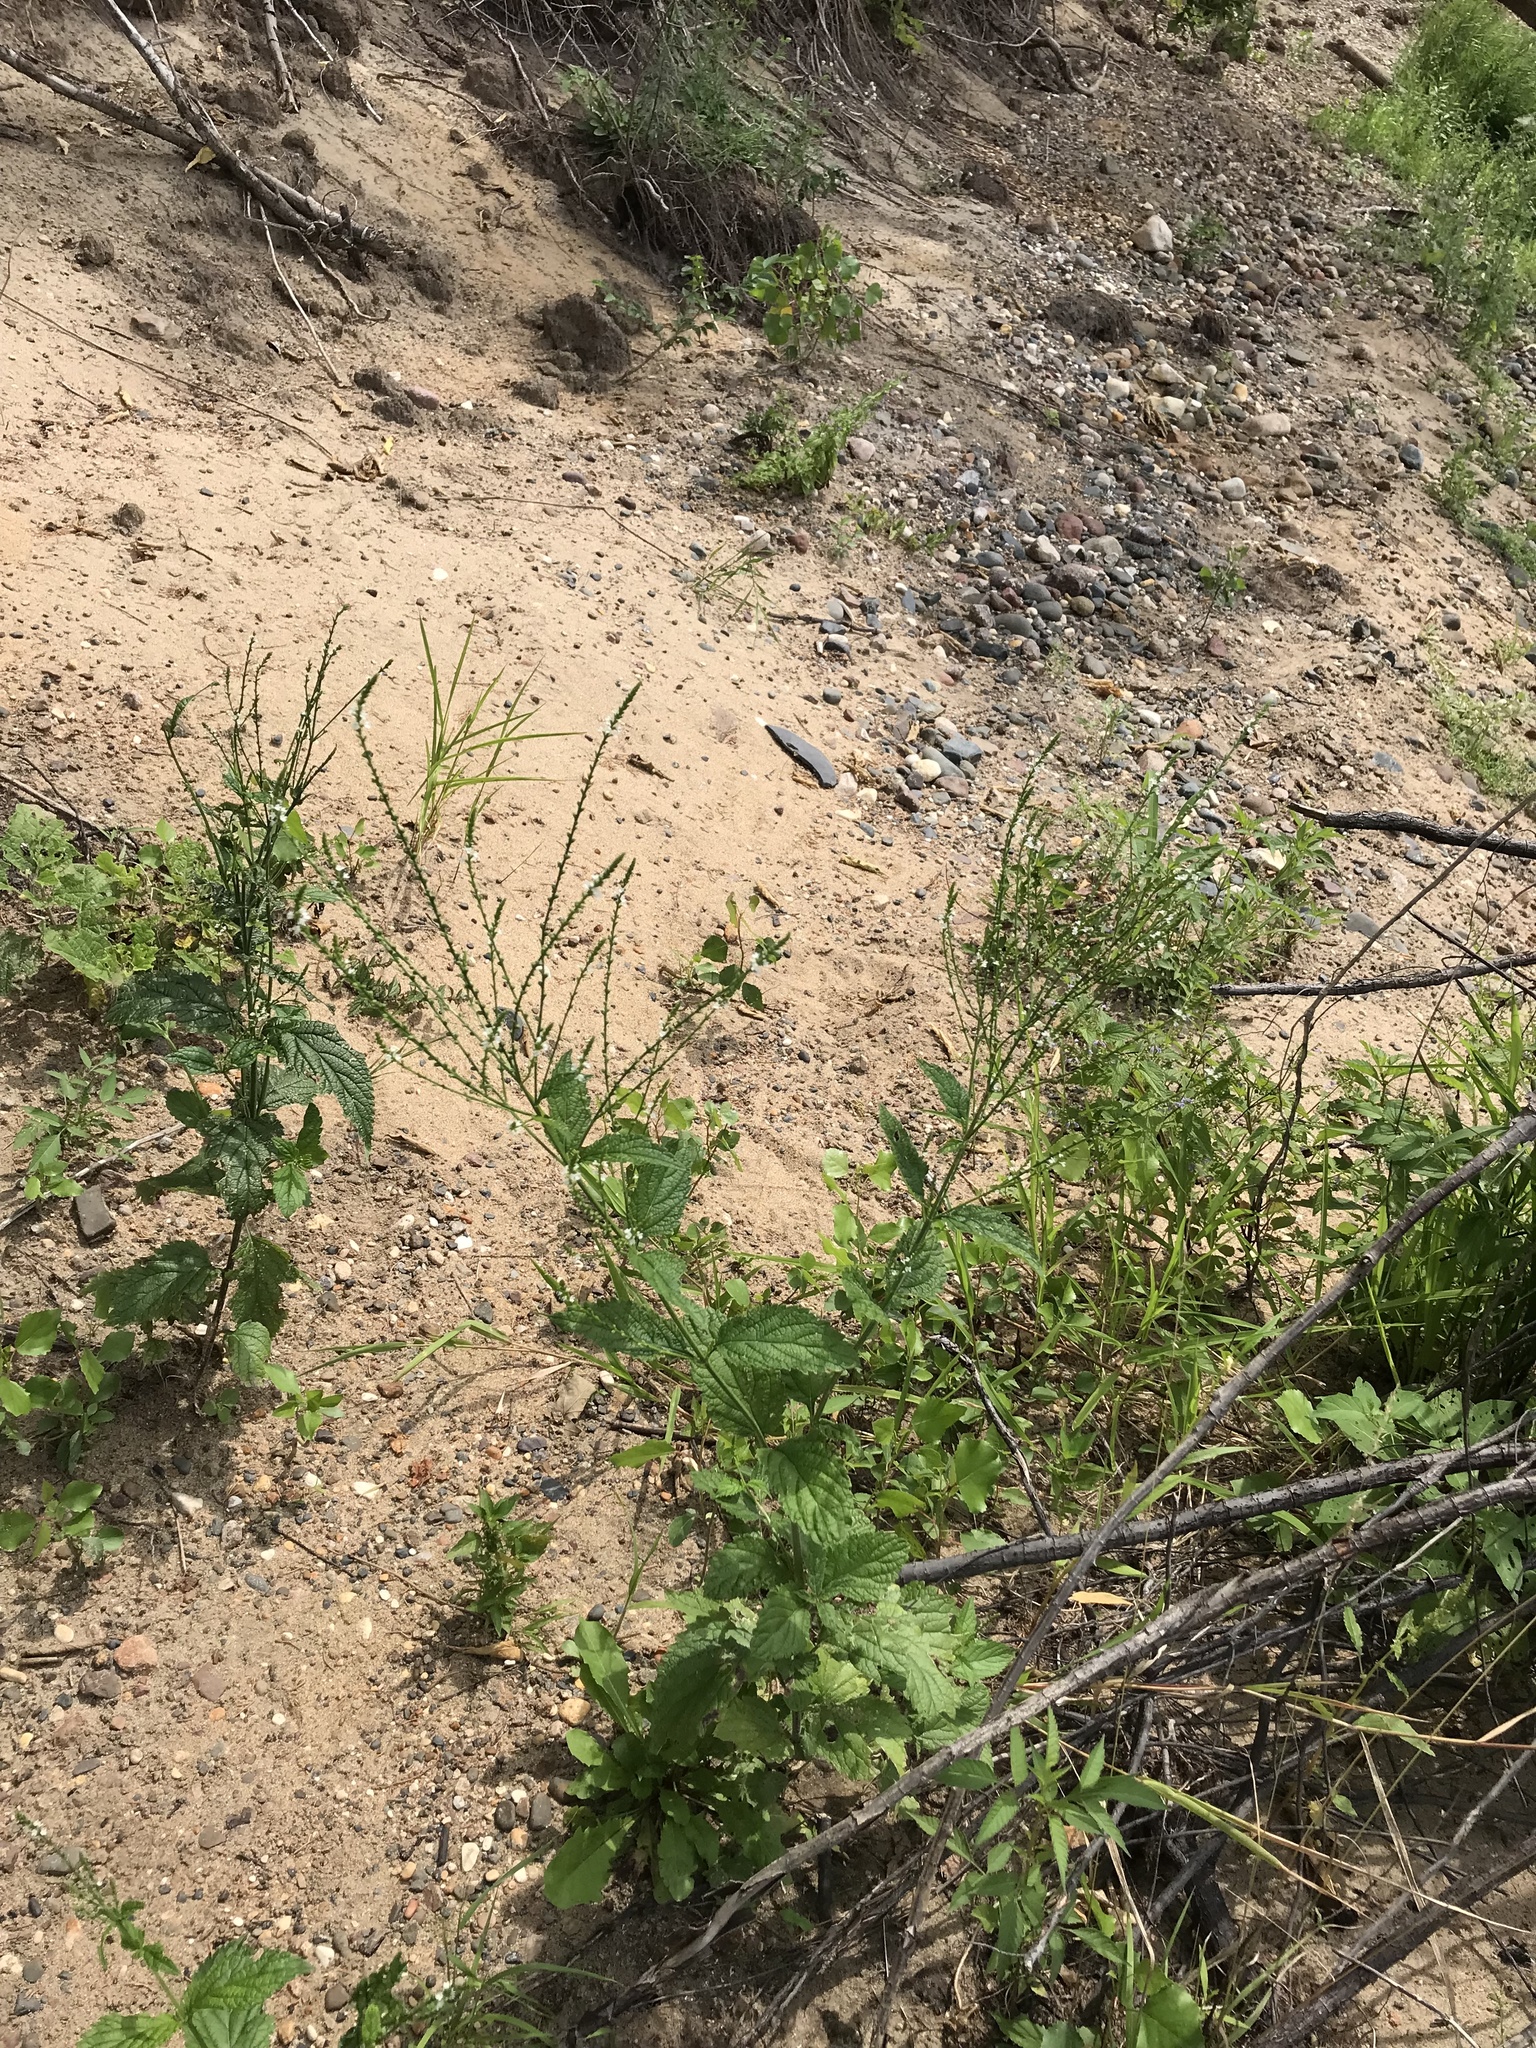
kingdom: Plantae
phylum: Tracheophyta
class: Magnoliopsida
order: Lamiales
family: Verbenaceae
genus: Verbena
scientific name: Verbena urticifolia
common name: Nettle-leaved vervain
